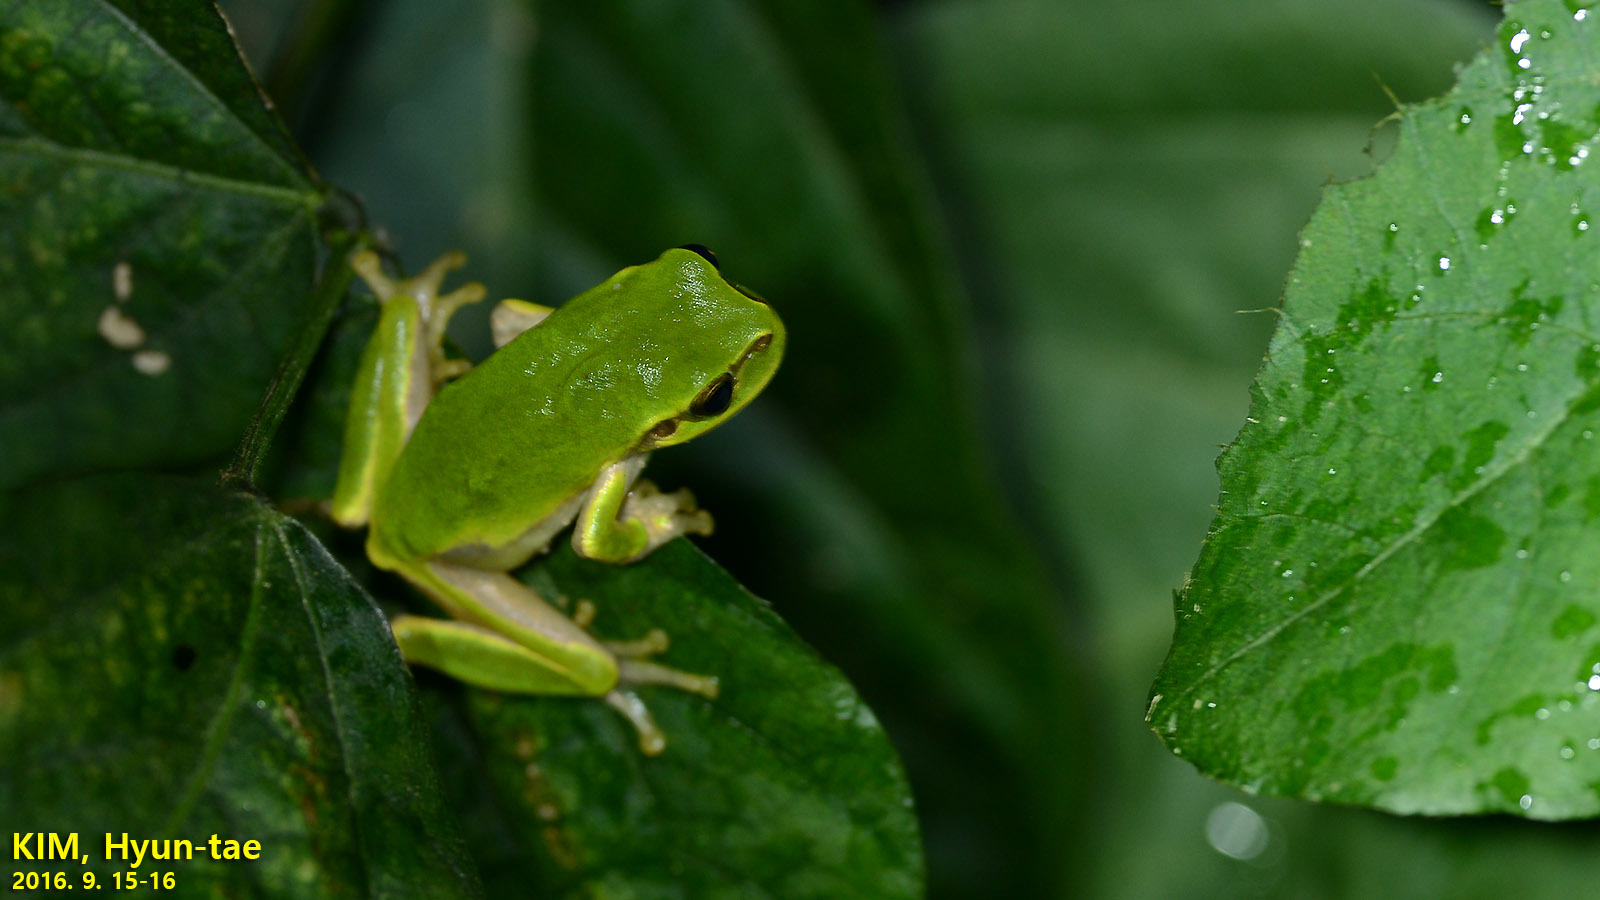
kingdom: Animalia
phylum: Chordata
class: Amphibia
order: Anura
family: Hylidae
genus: Dryophytes
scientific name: Dryophytes japonicus
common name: Japanese treefrog
